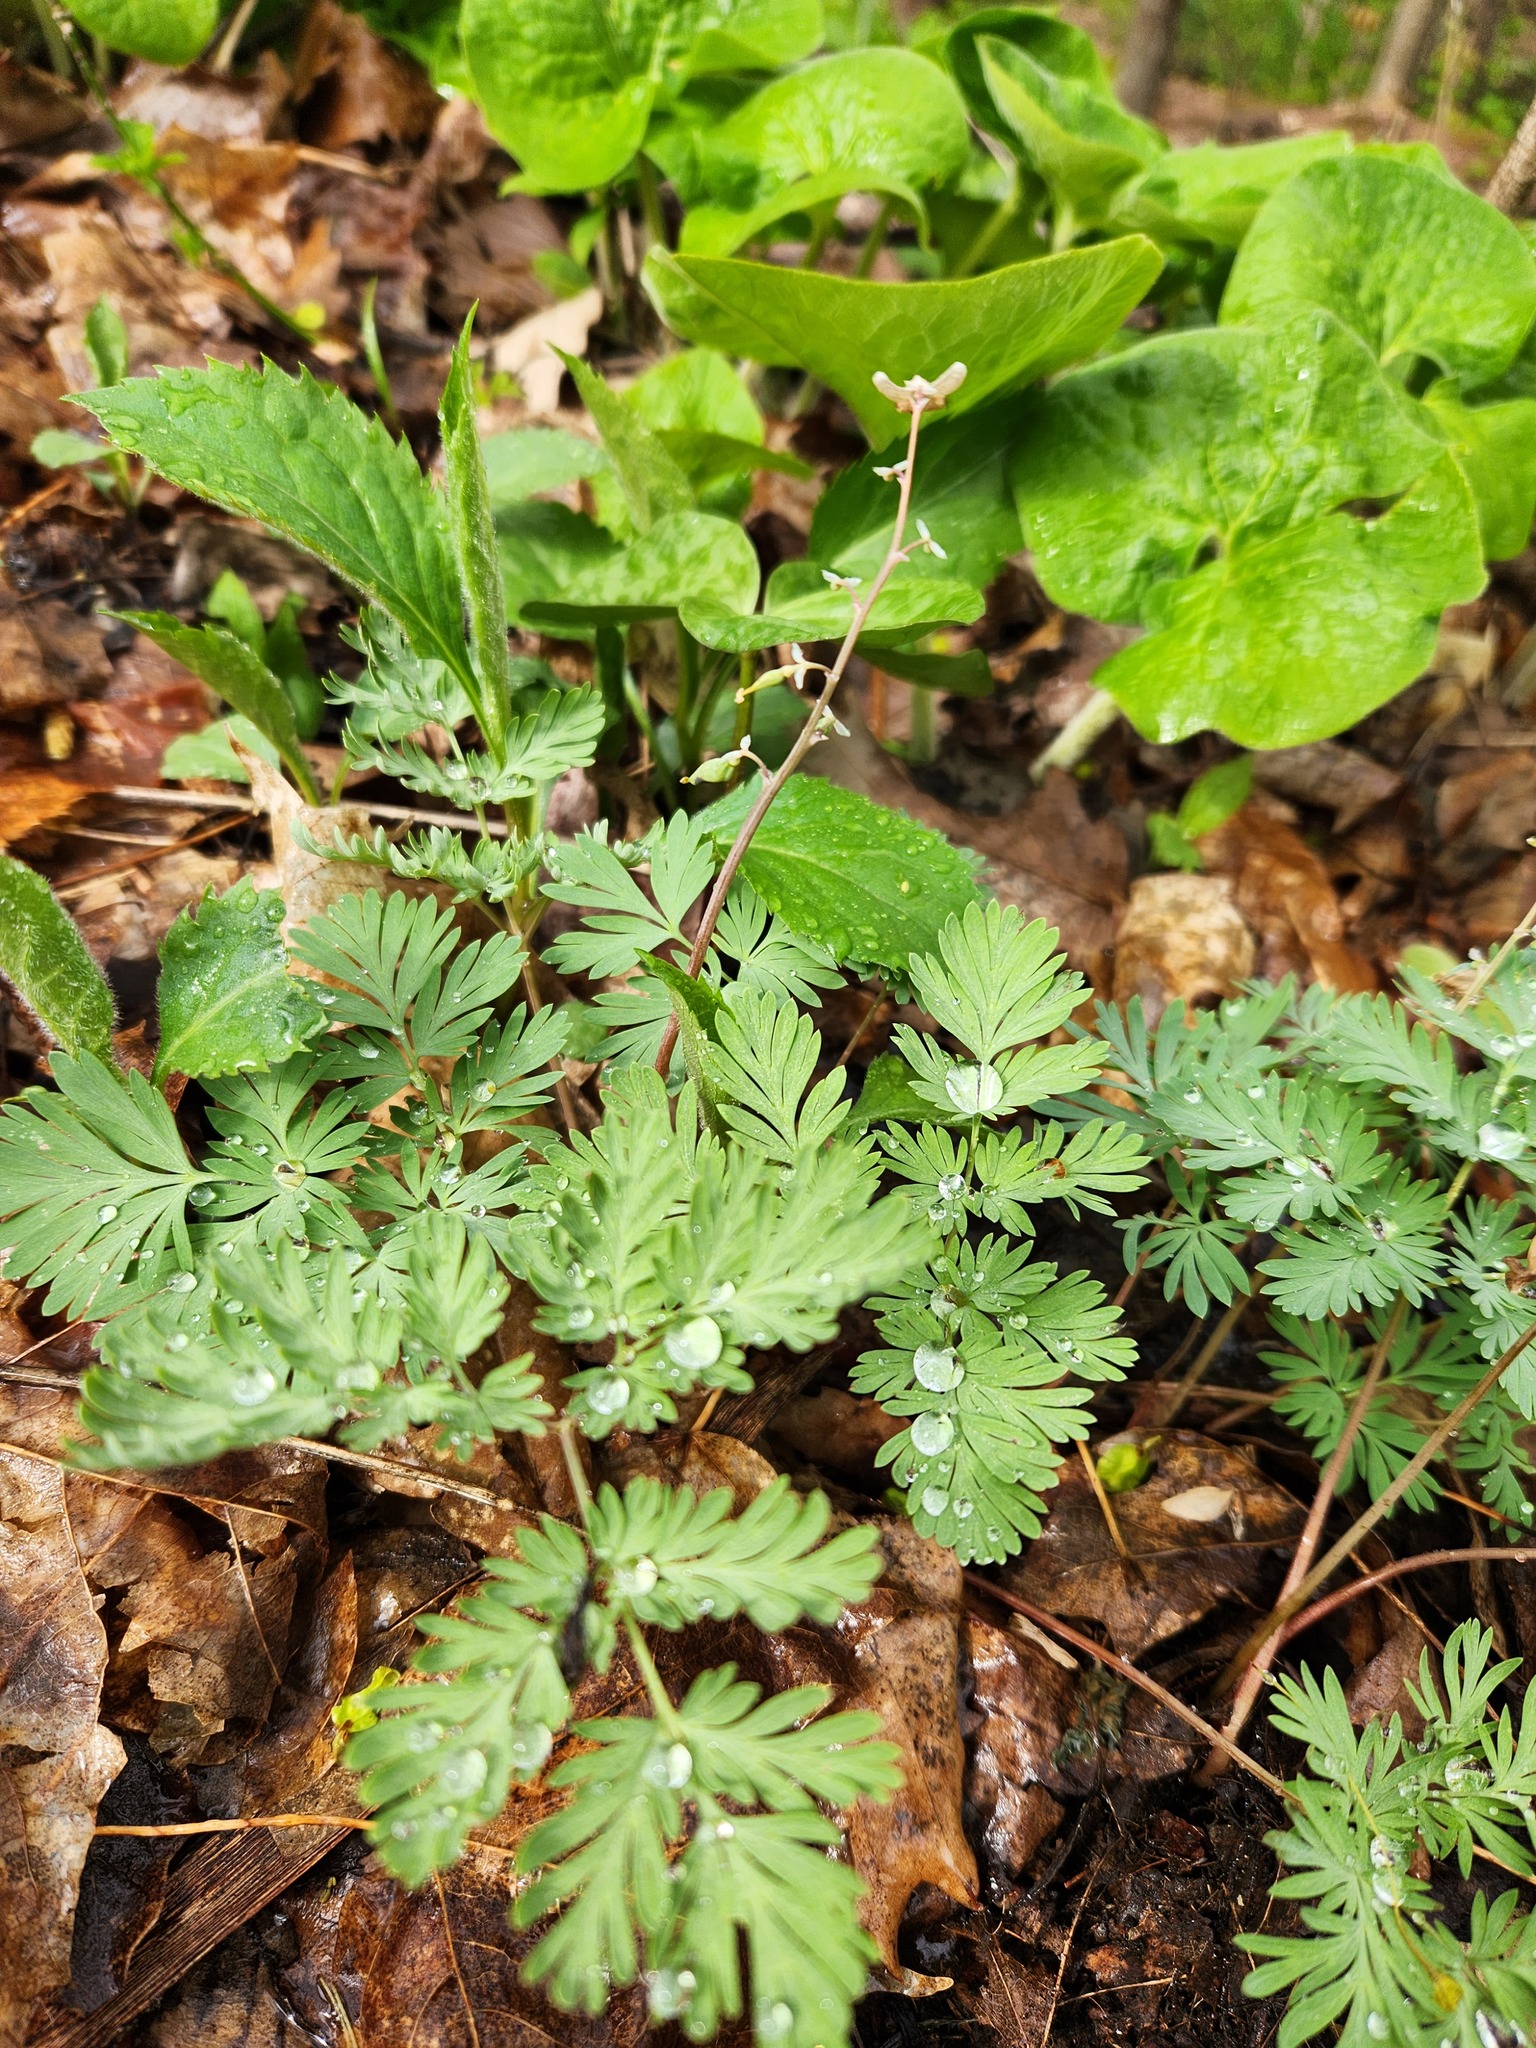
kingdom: Plantae
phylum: Tracheophyta
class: Magnoliopsida
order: Ranunculales
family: Papaveraceae
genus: Dicentra
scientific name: Dicentra cucullaria
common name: Dutchman's breeches
